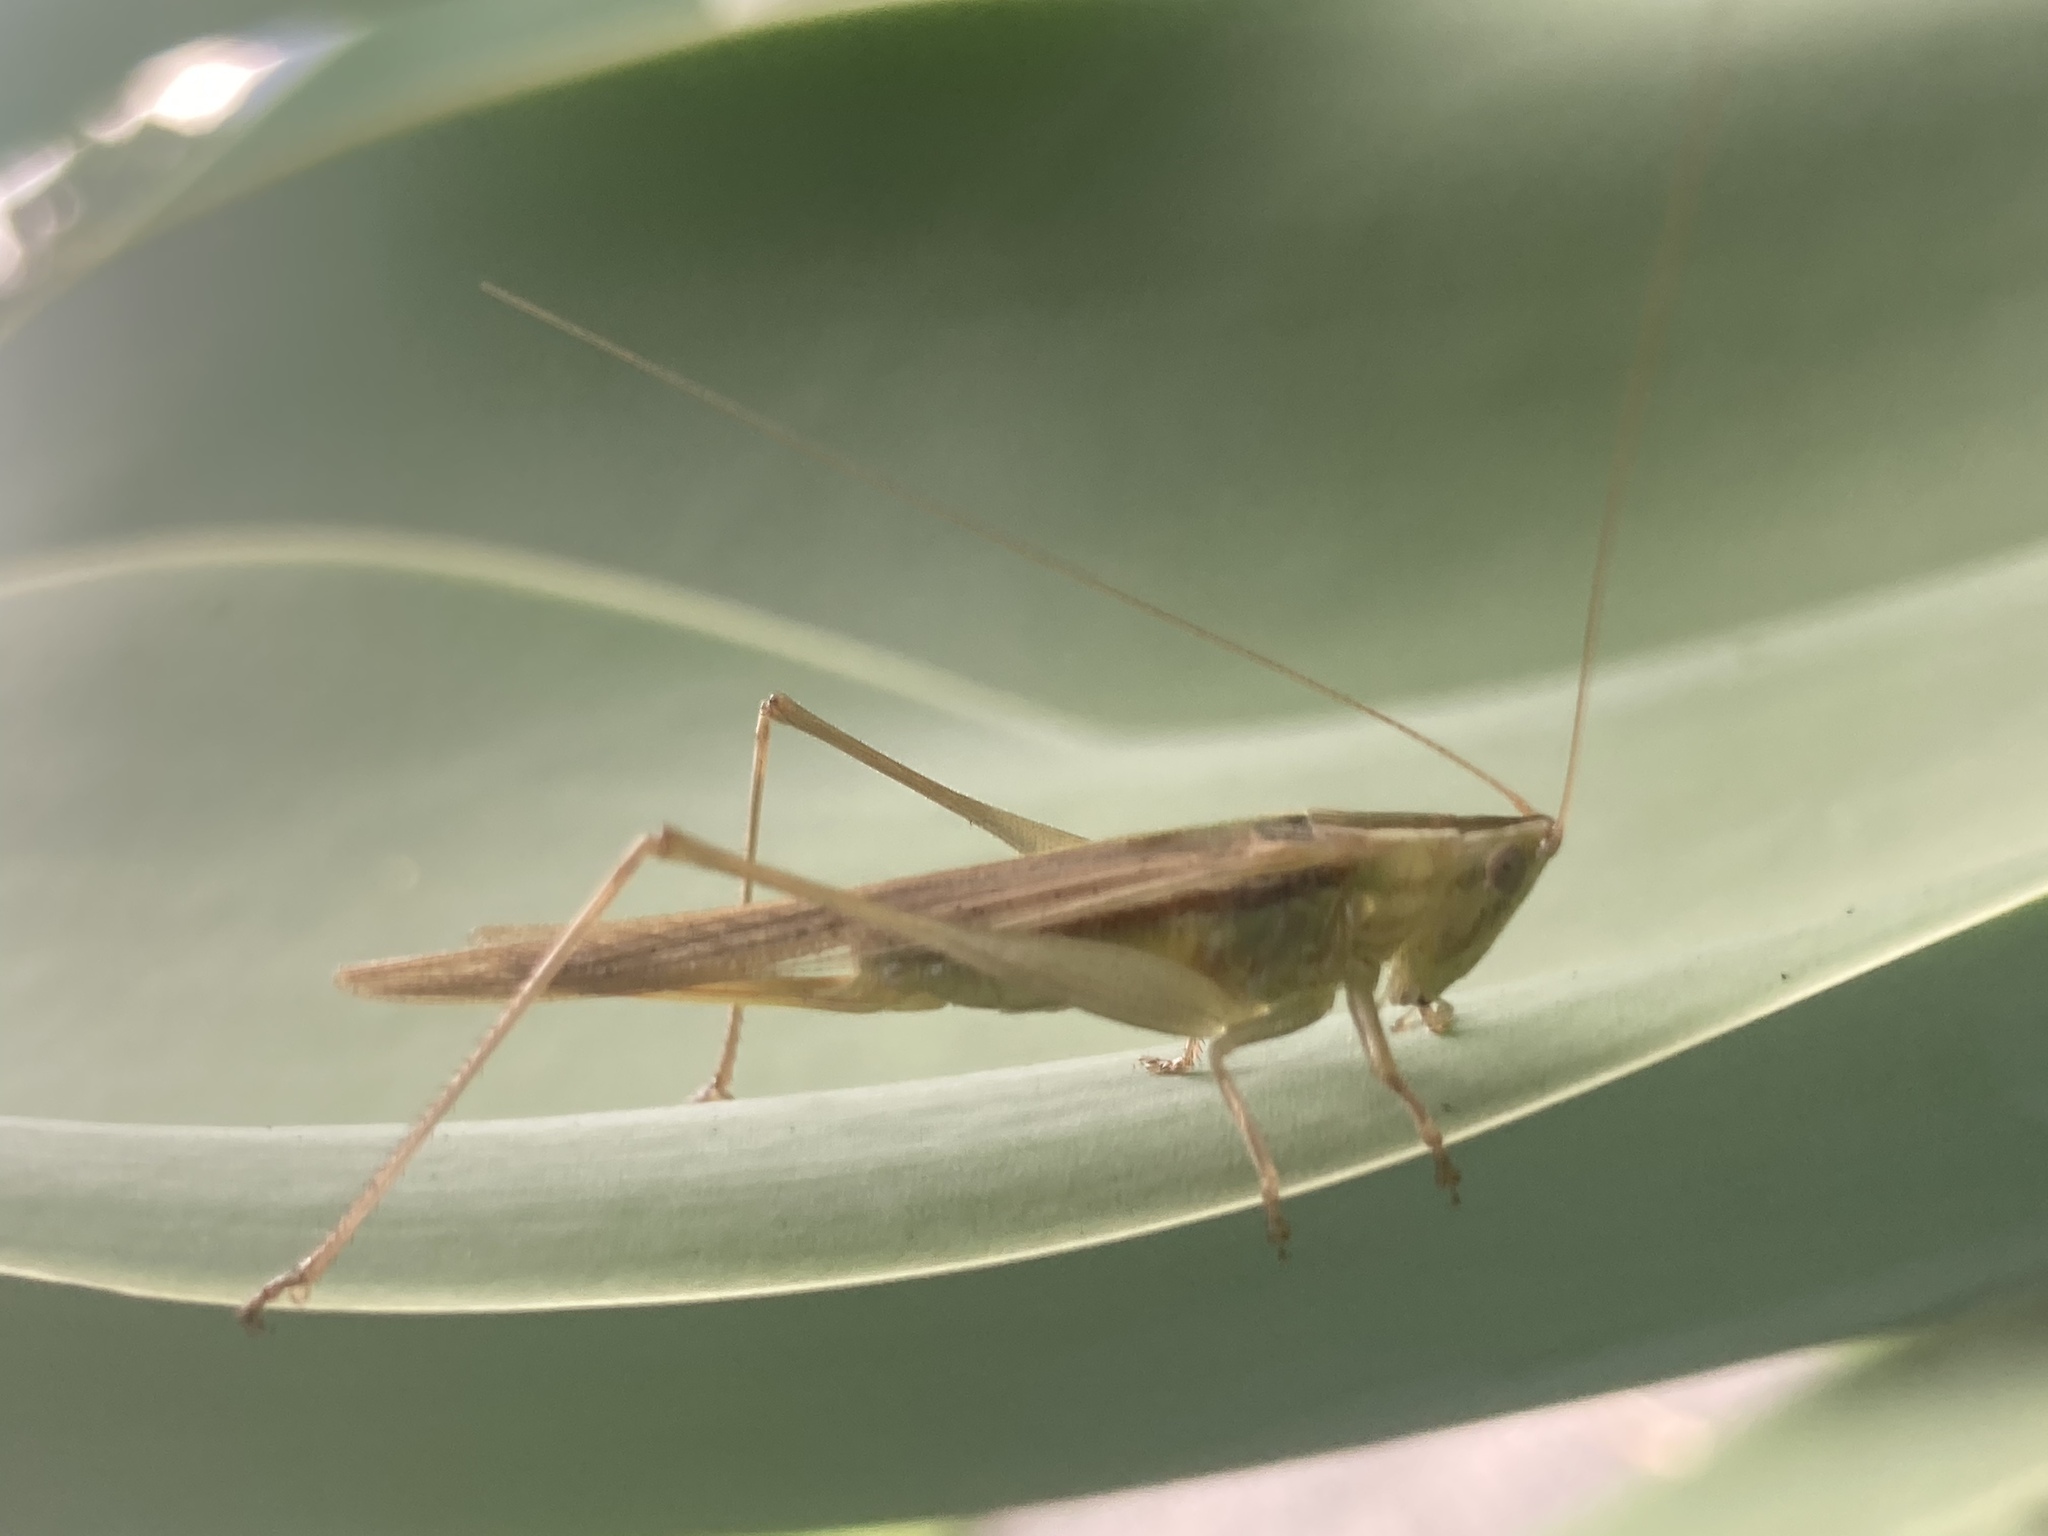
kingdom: Animalia
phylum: Arthropoda
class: Insecta
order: Orthoptera
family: Tettigoniidae
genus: Conocephalus
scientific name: Conocephalus upoluensis
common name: Upolu meadow katydid
